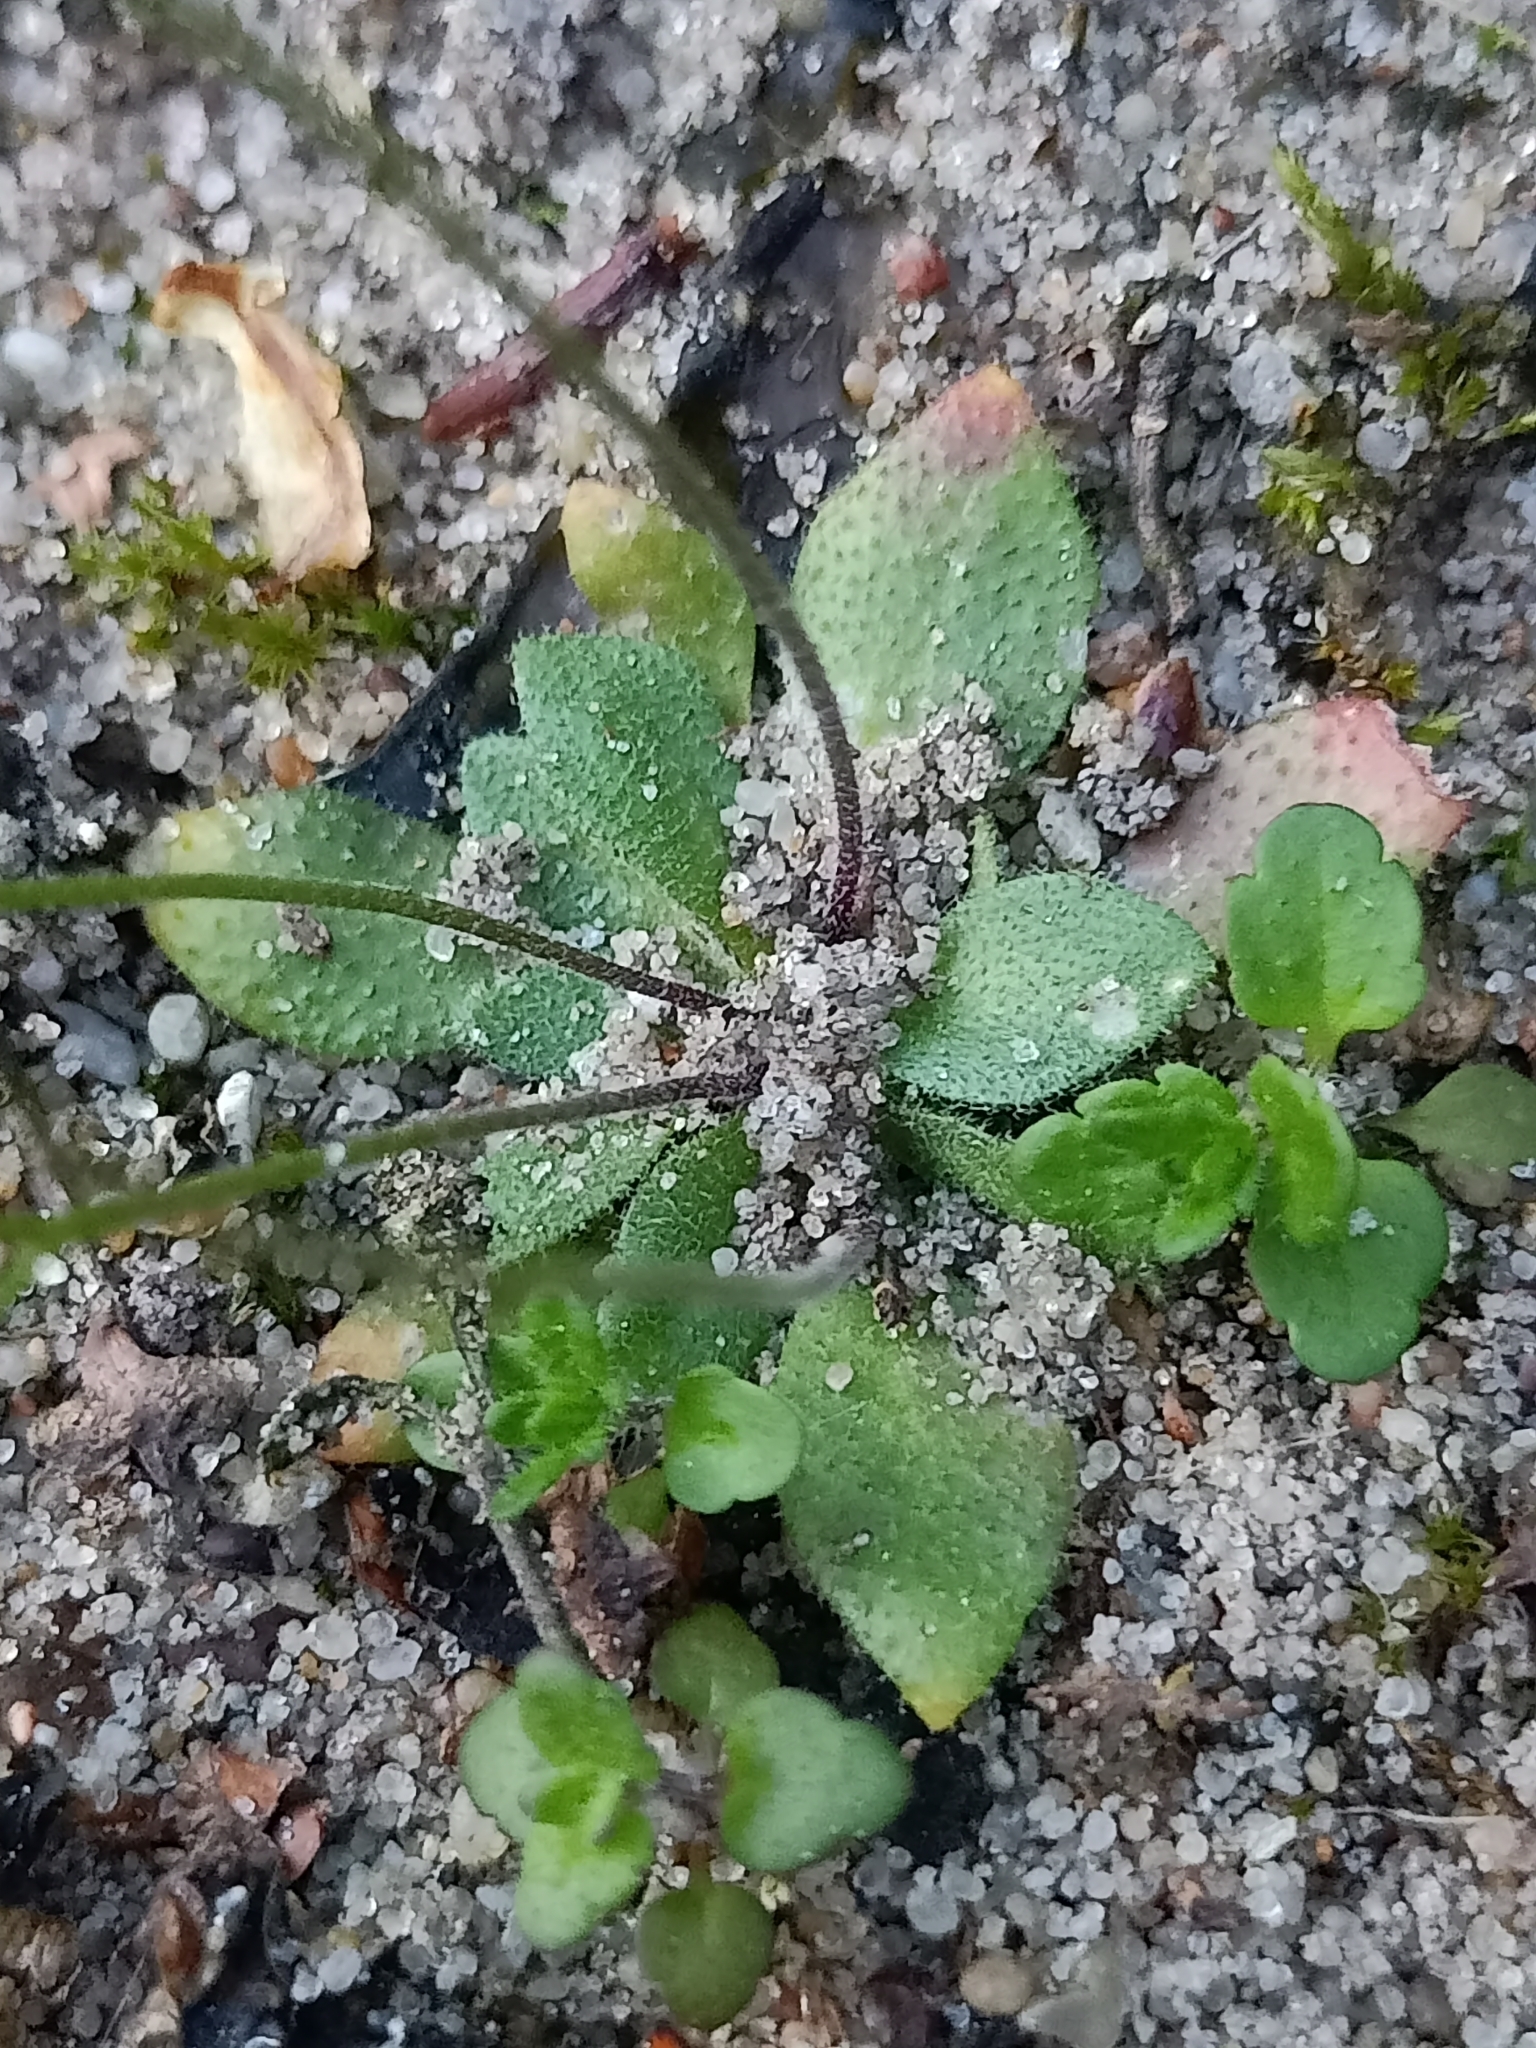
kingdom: Plantae
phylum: Tracheophyta
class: Magnoliopsida
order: Brassicales
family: Brassicaceae
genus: Draba
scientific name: Draba verna
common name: Spring draba
